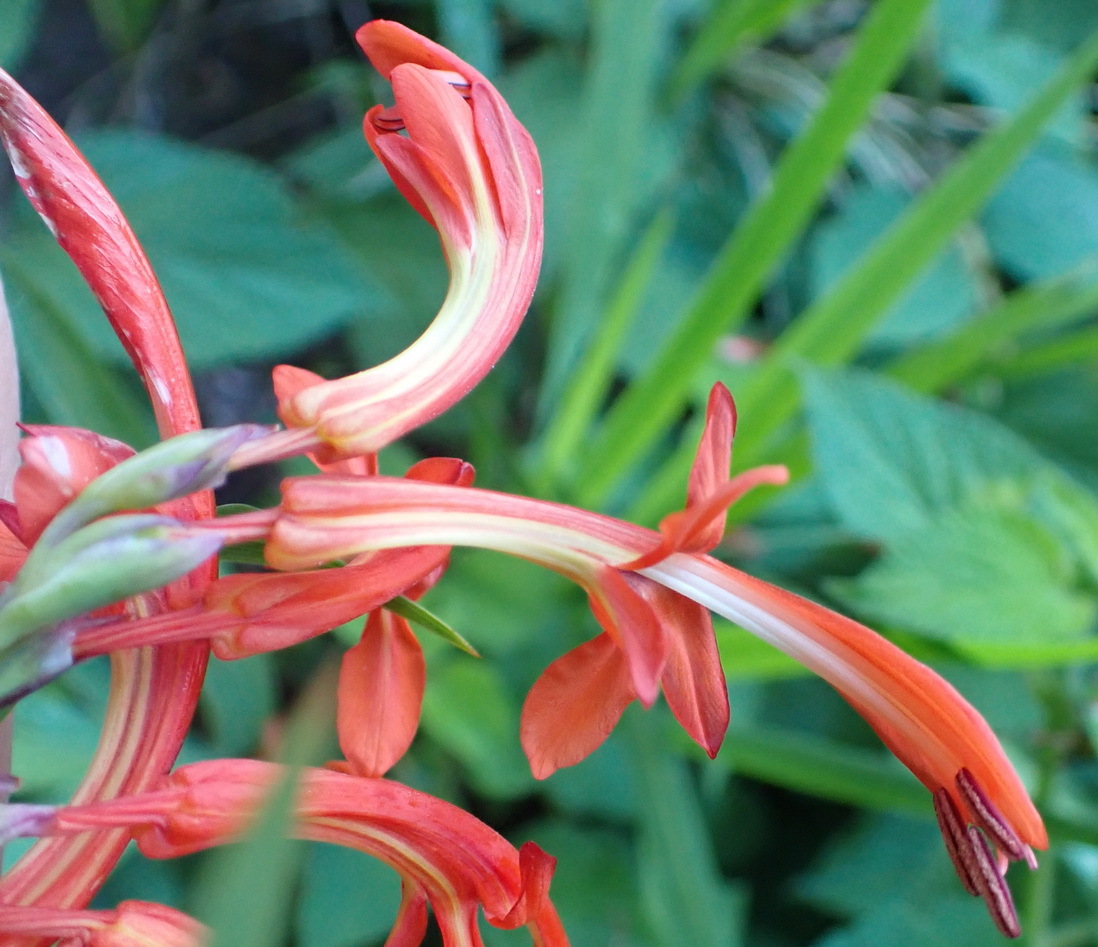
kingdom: Plantae
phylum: Tracheophyta
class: Liliopsida
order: Asparagales
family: Iridaceae
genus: Chasmanthe
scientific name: Chasmanthe aethiopica
